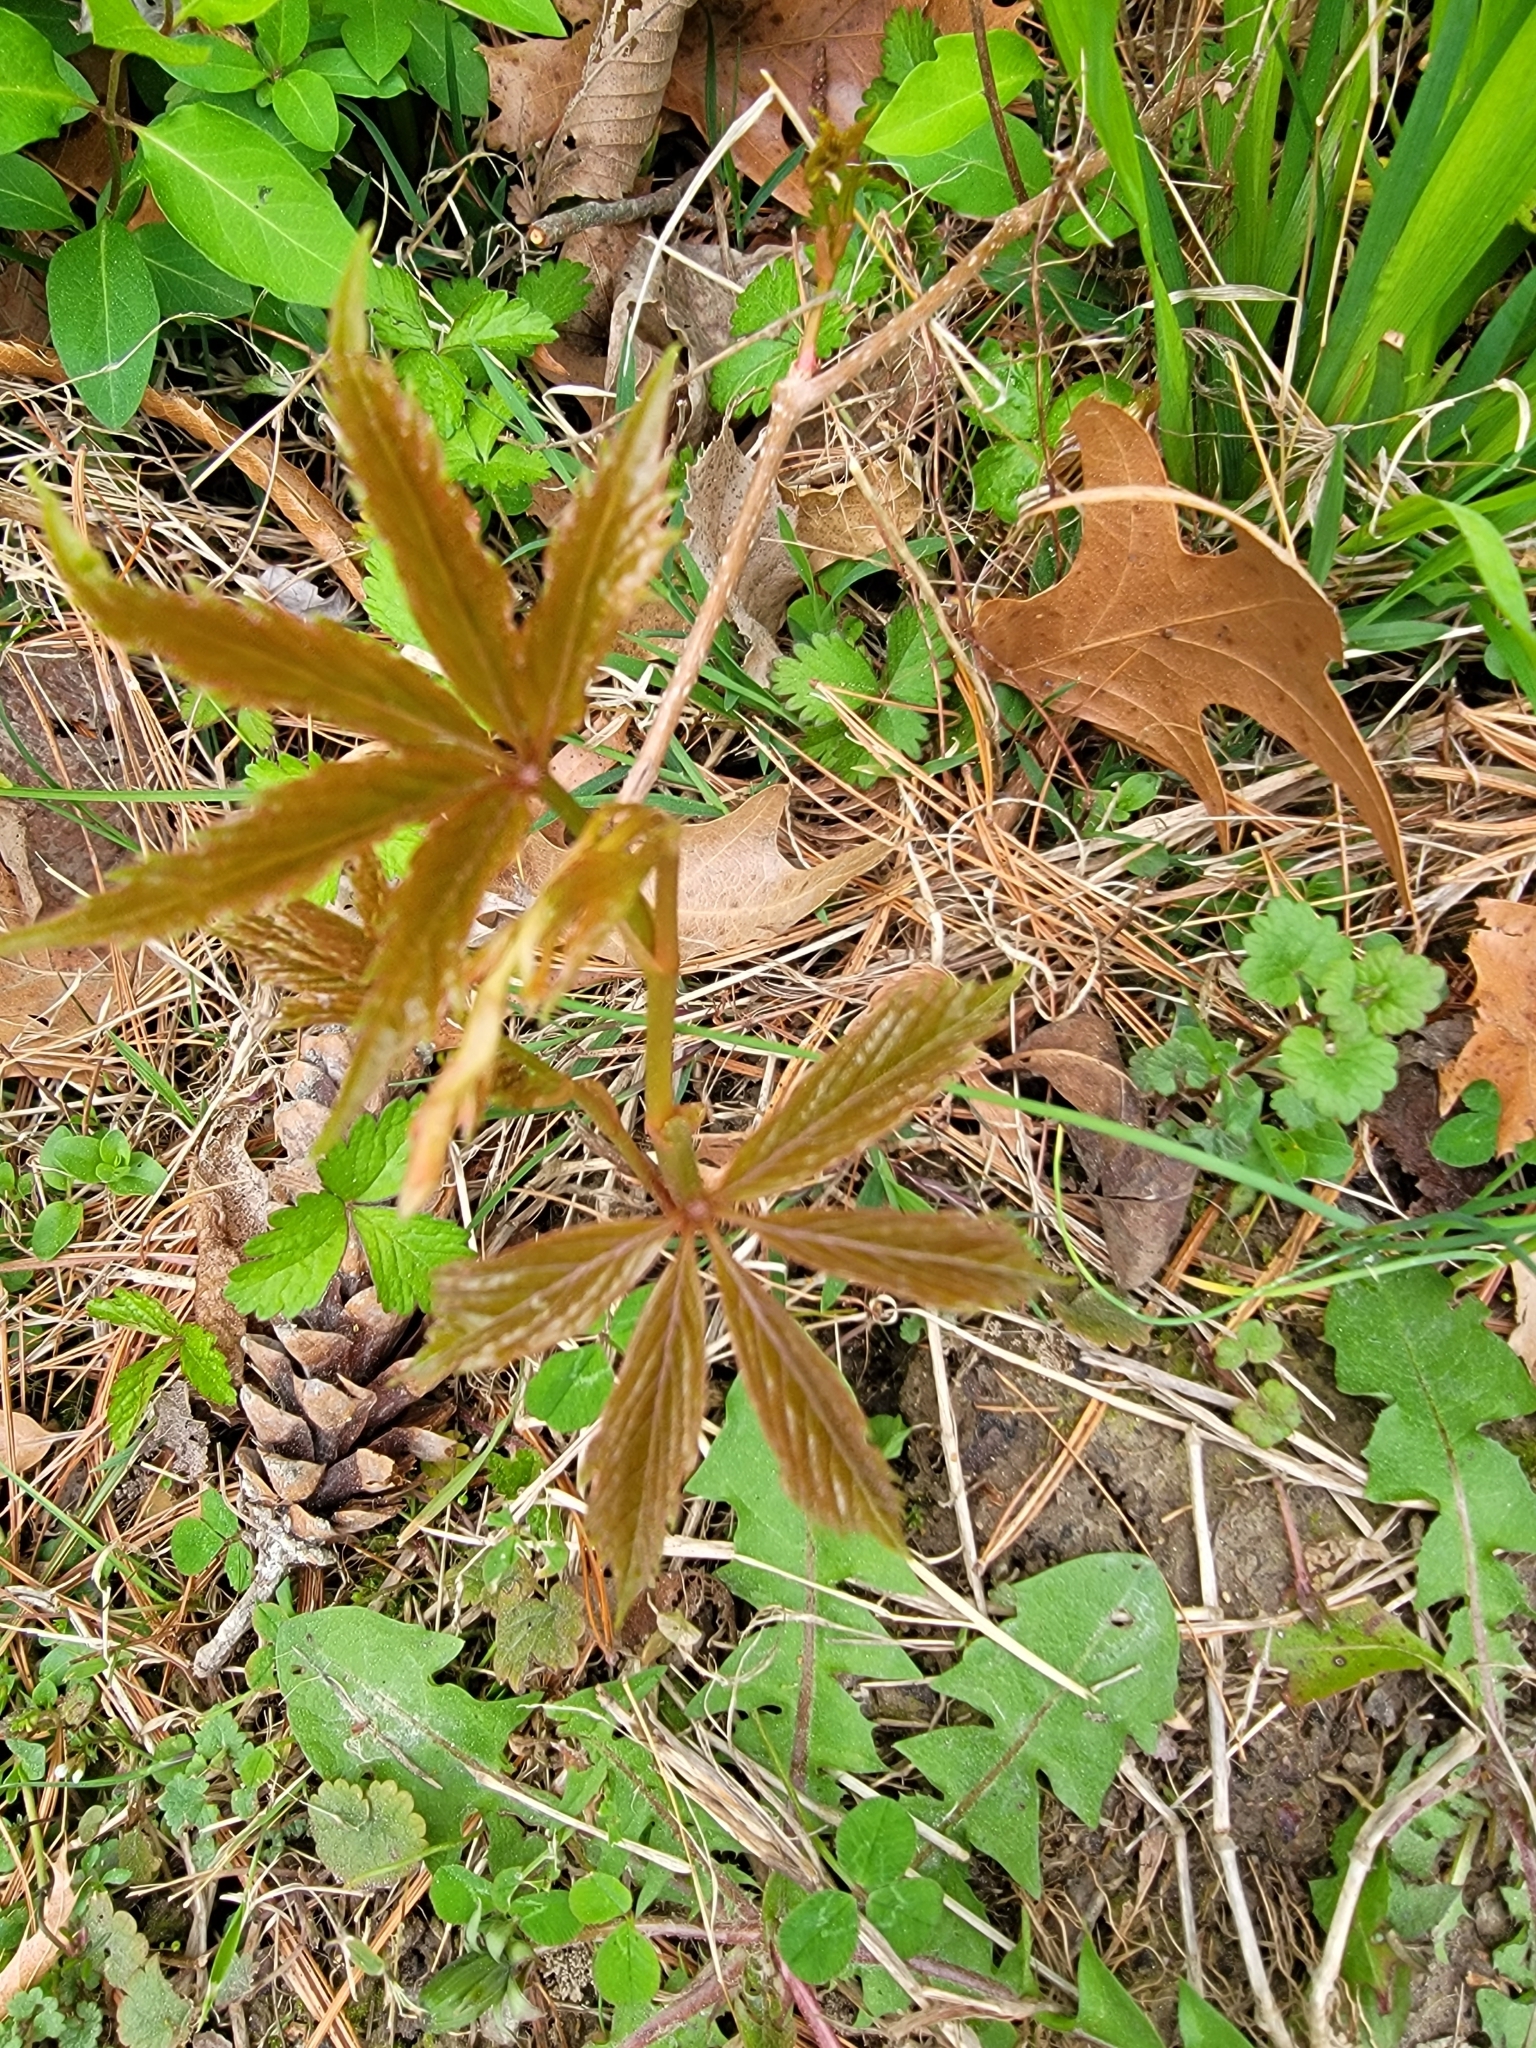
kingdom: Plantae
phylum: Tracheophyta
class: Magnoliopsida
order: Vitales
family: Vitaceae
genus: Parthenocissus
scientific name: Parthenocissus quinquefolia
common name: Virginia-creeper
